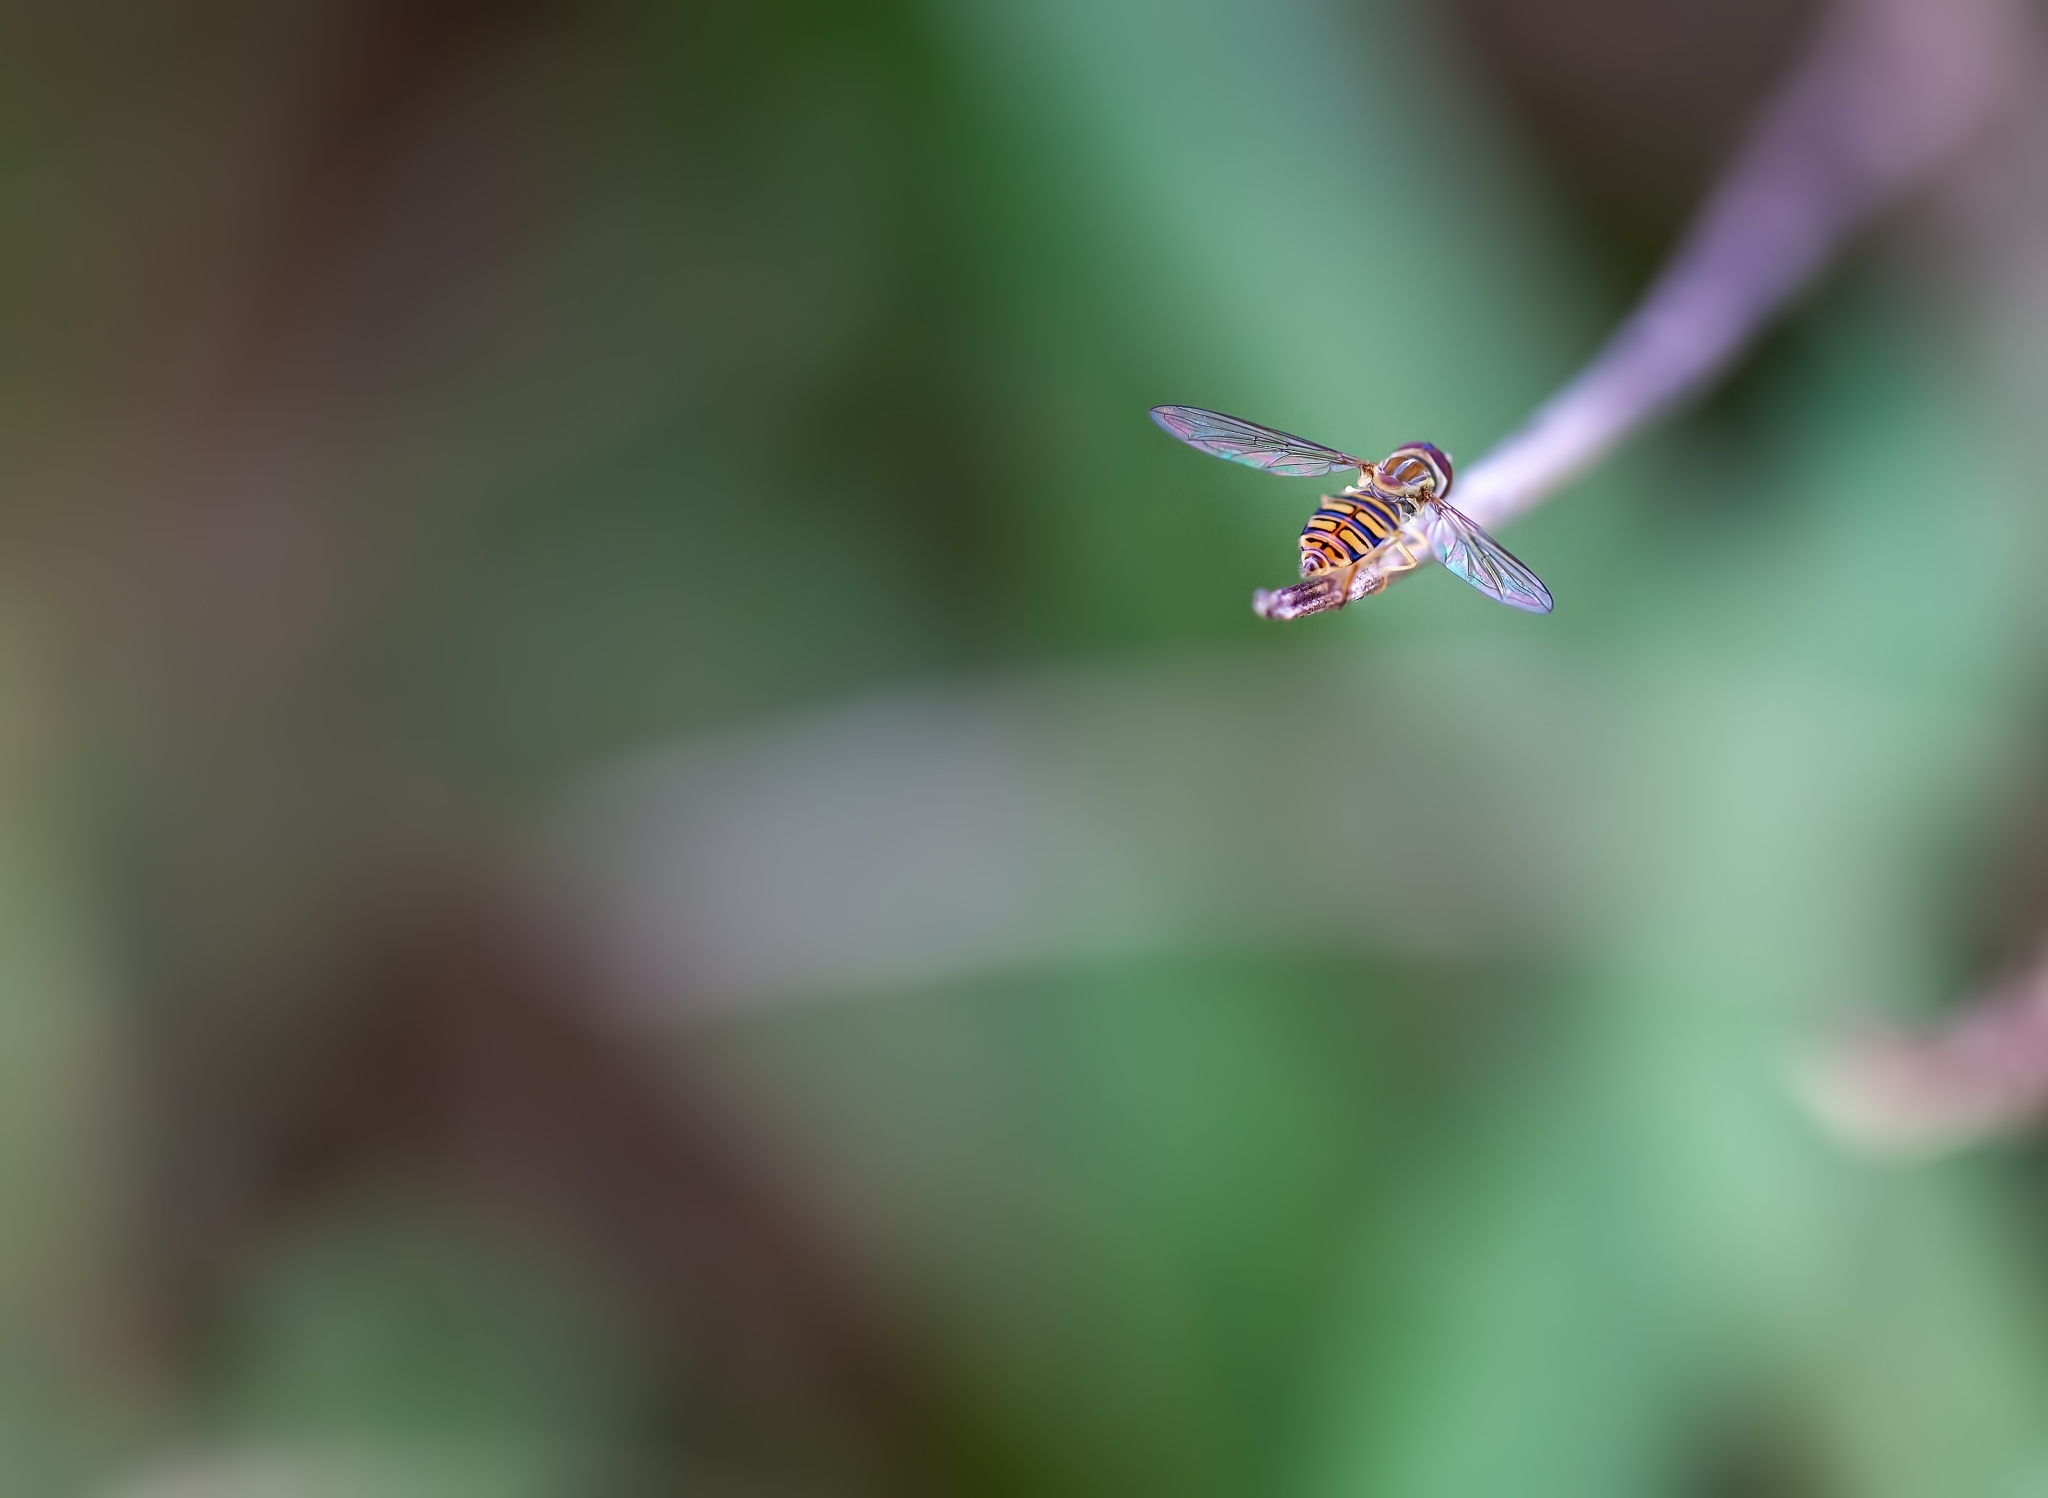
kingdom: Animalia
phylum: Arthropoda
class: Insecta
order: Diptera
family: Syrphidae
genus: Toxomerus
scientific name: Toxomerus politus
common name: Maize calligrapher
